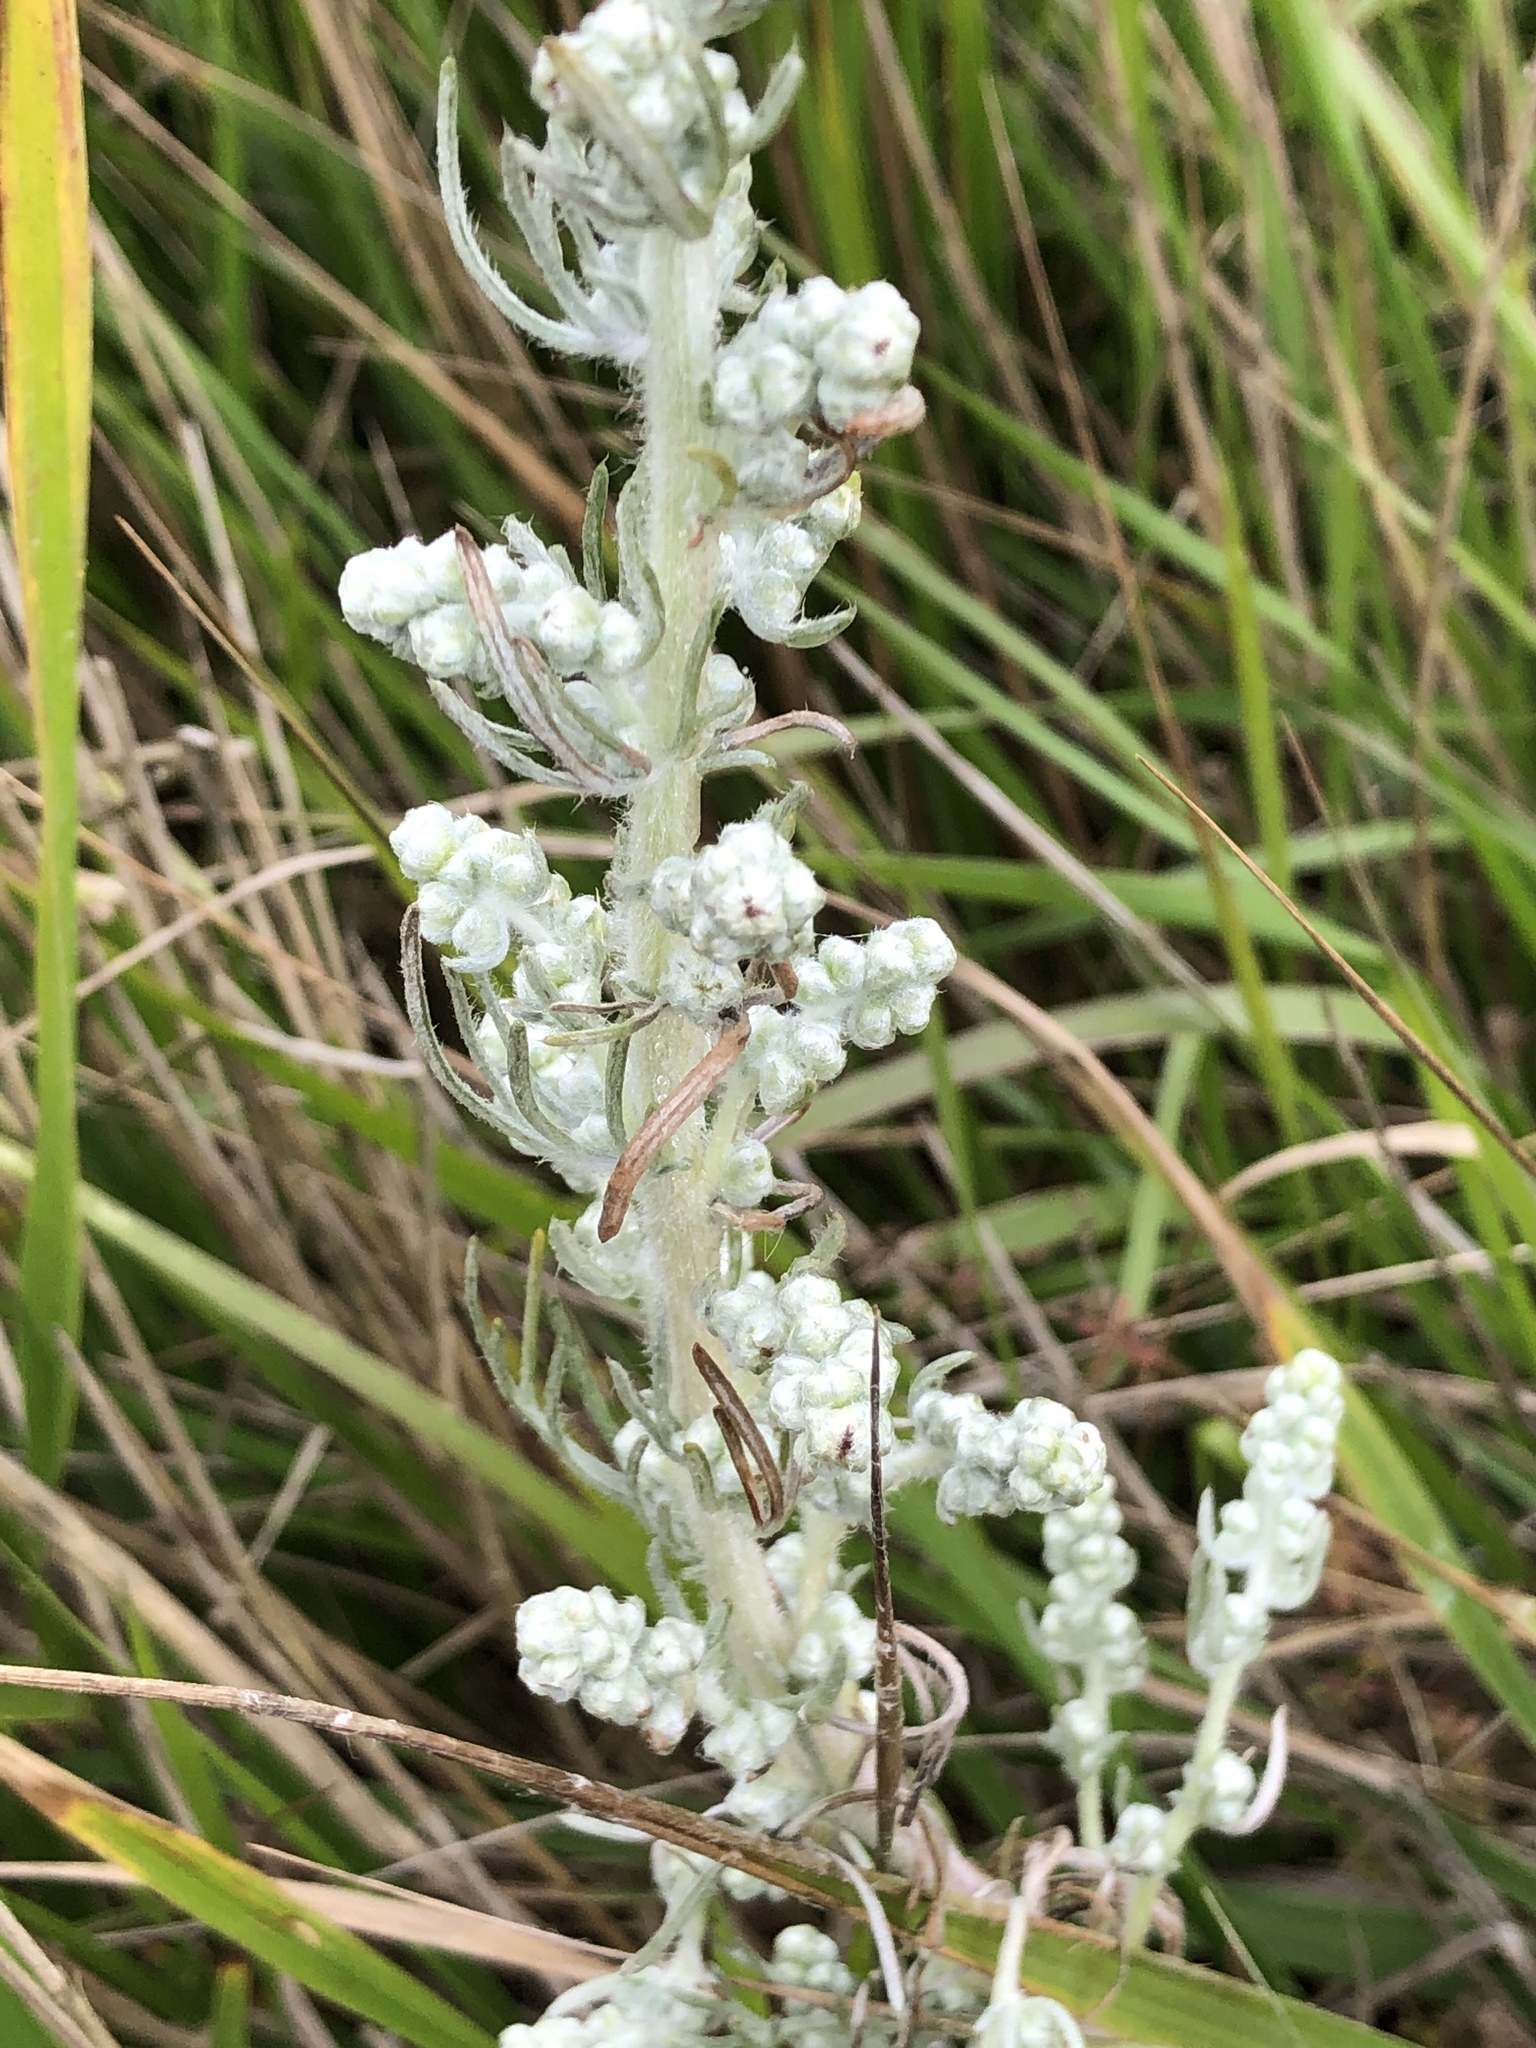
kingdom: Plantae
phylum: Tracheophyta
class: Magnoliopsida
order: Asterales
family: Asteraceae
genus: Artemisia
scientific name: Artemisia pycnocephala
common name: Coastal sagewort
